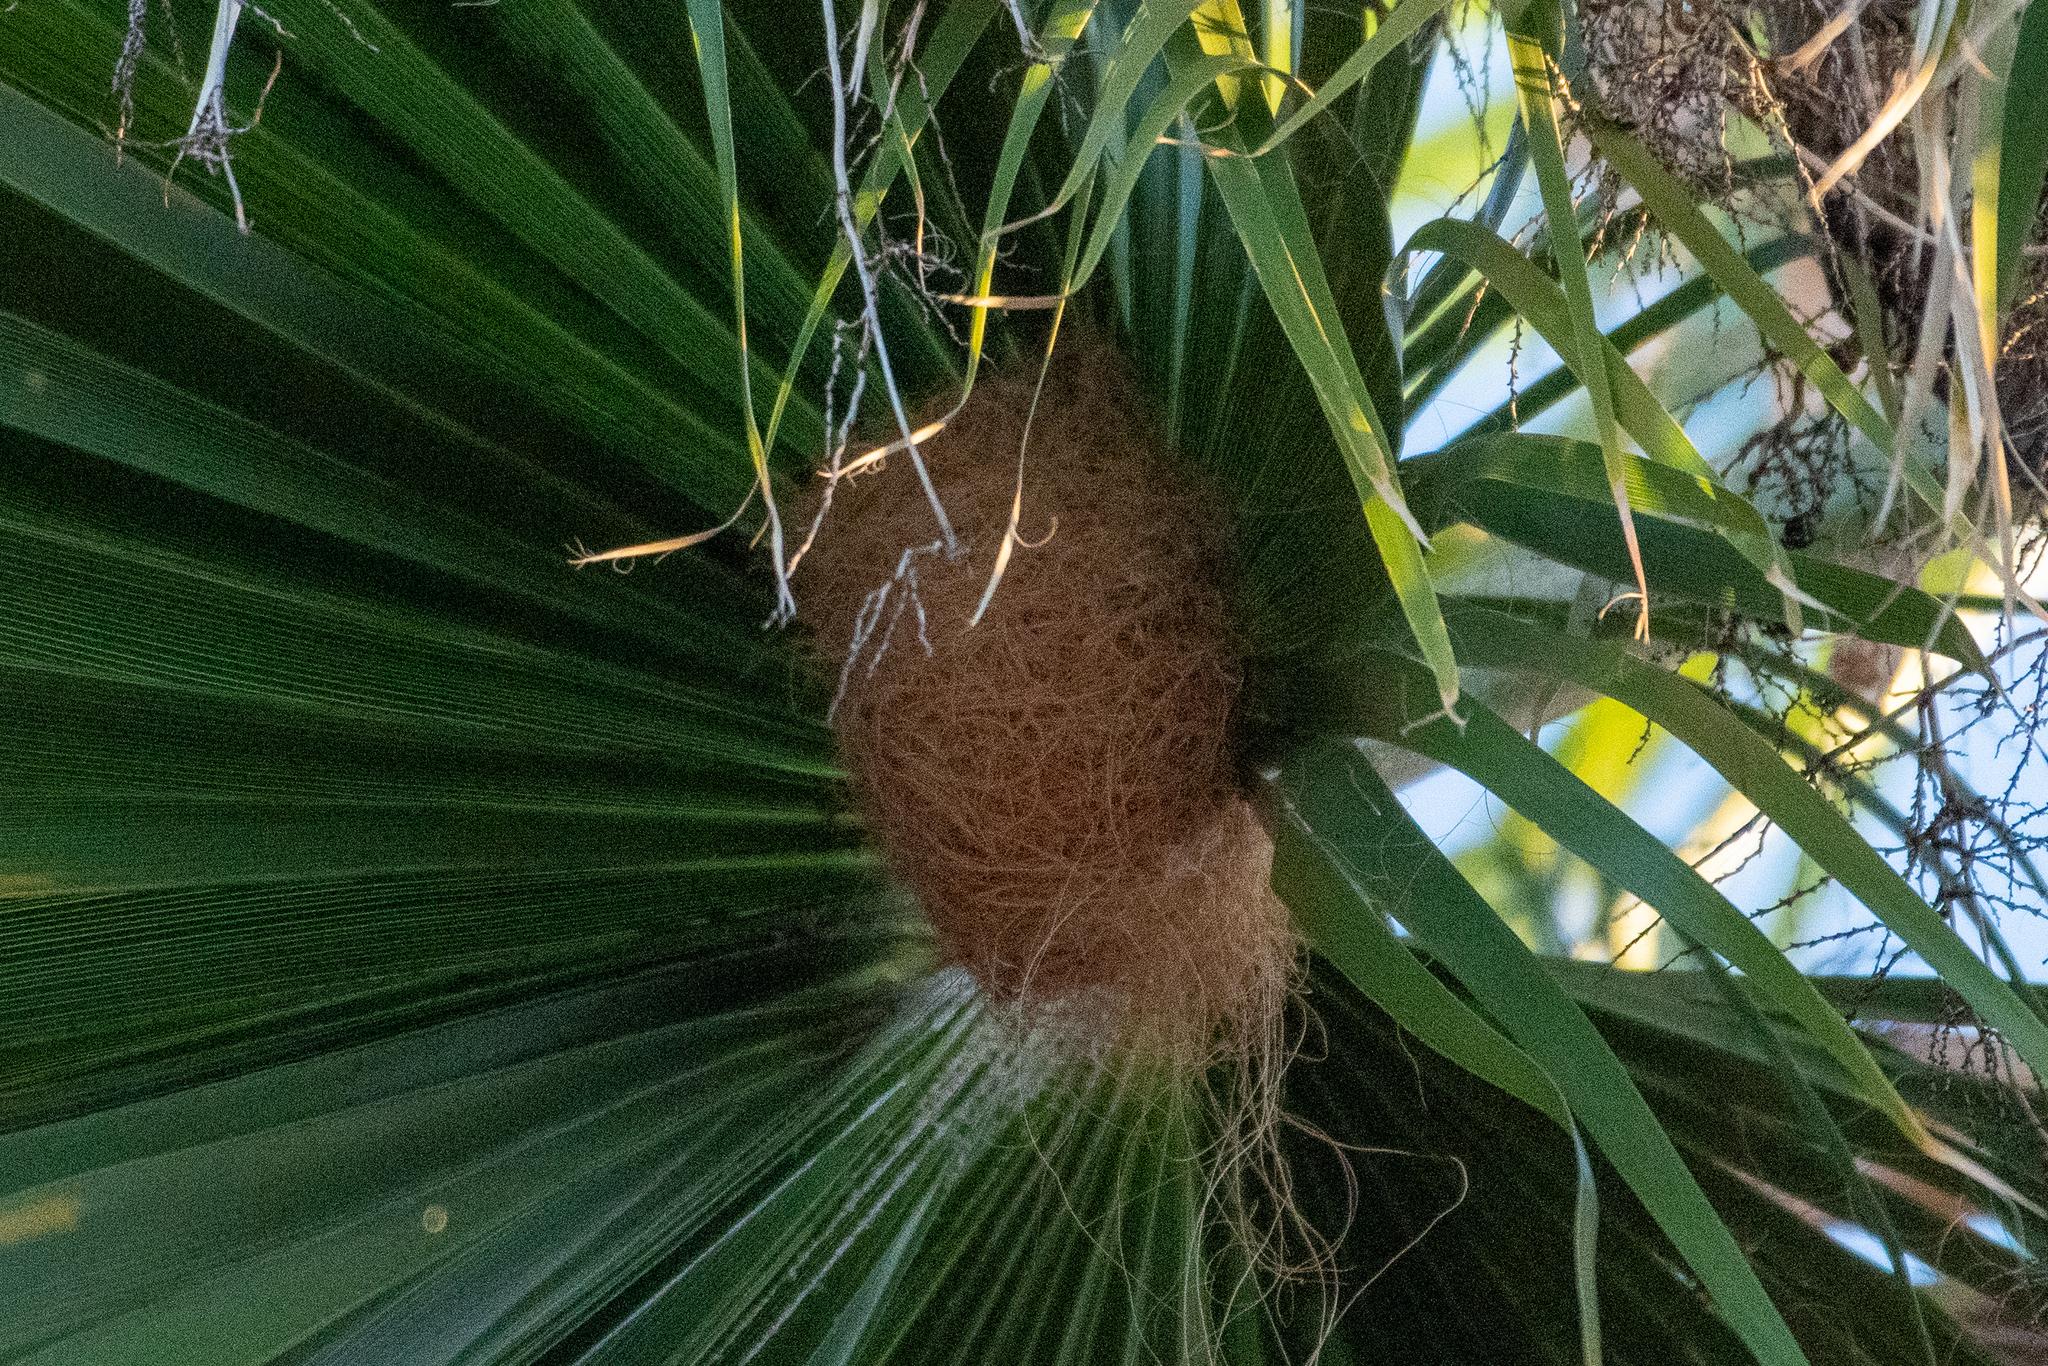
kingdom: Animalia
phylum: Chordata
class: Aves
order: Passeriformes
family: Icteridae
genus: Icterus
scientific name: Icterus cucullatus
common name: Hooded oriole
